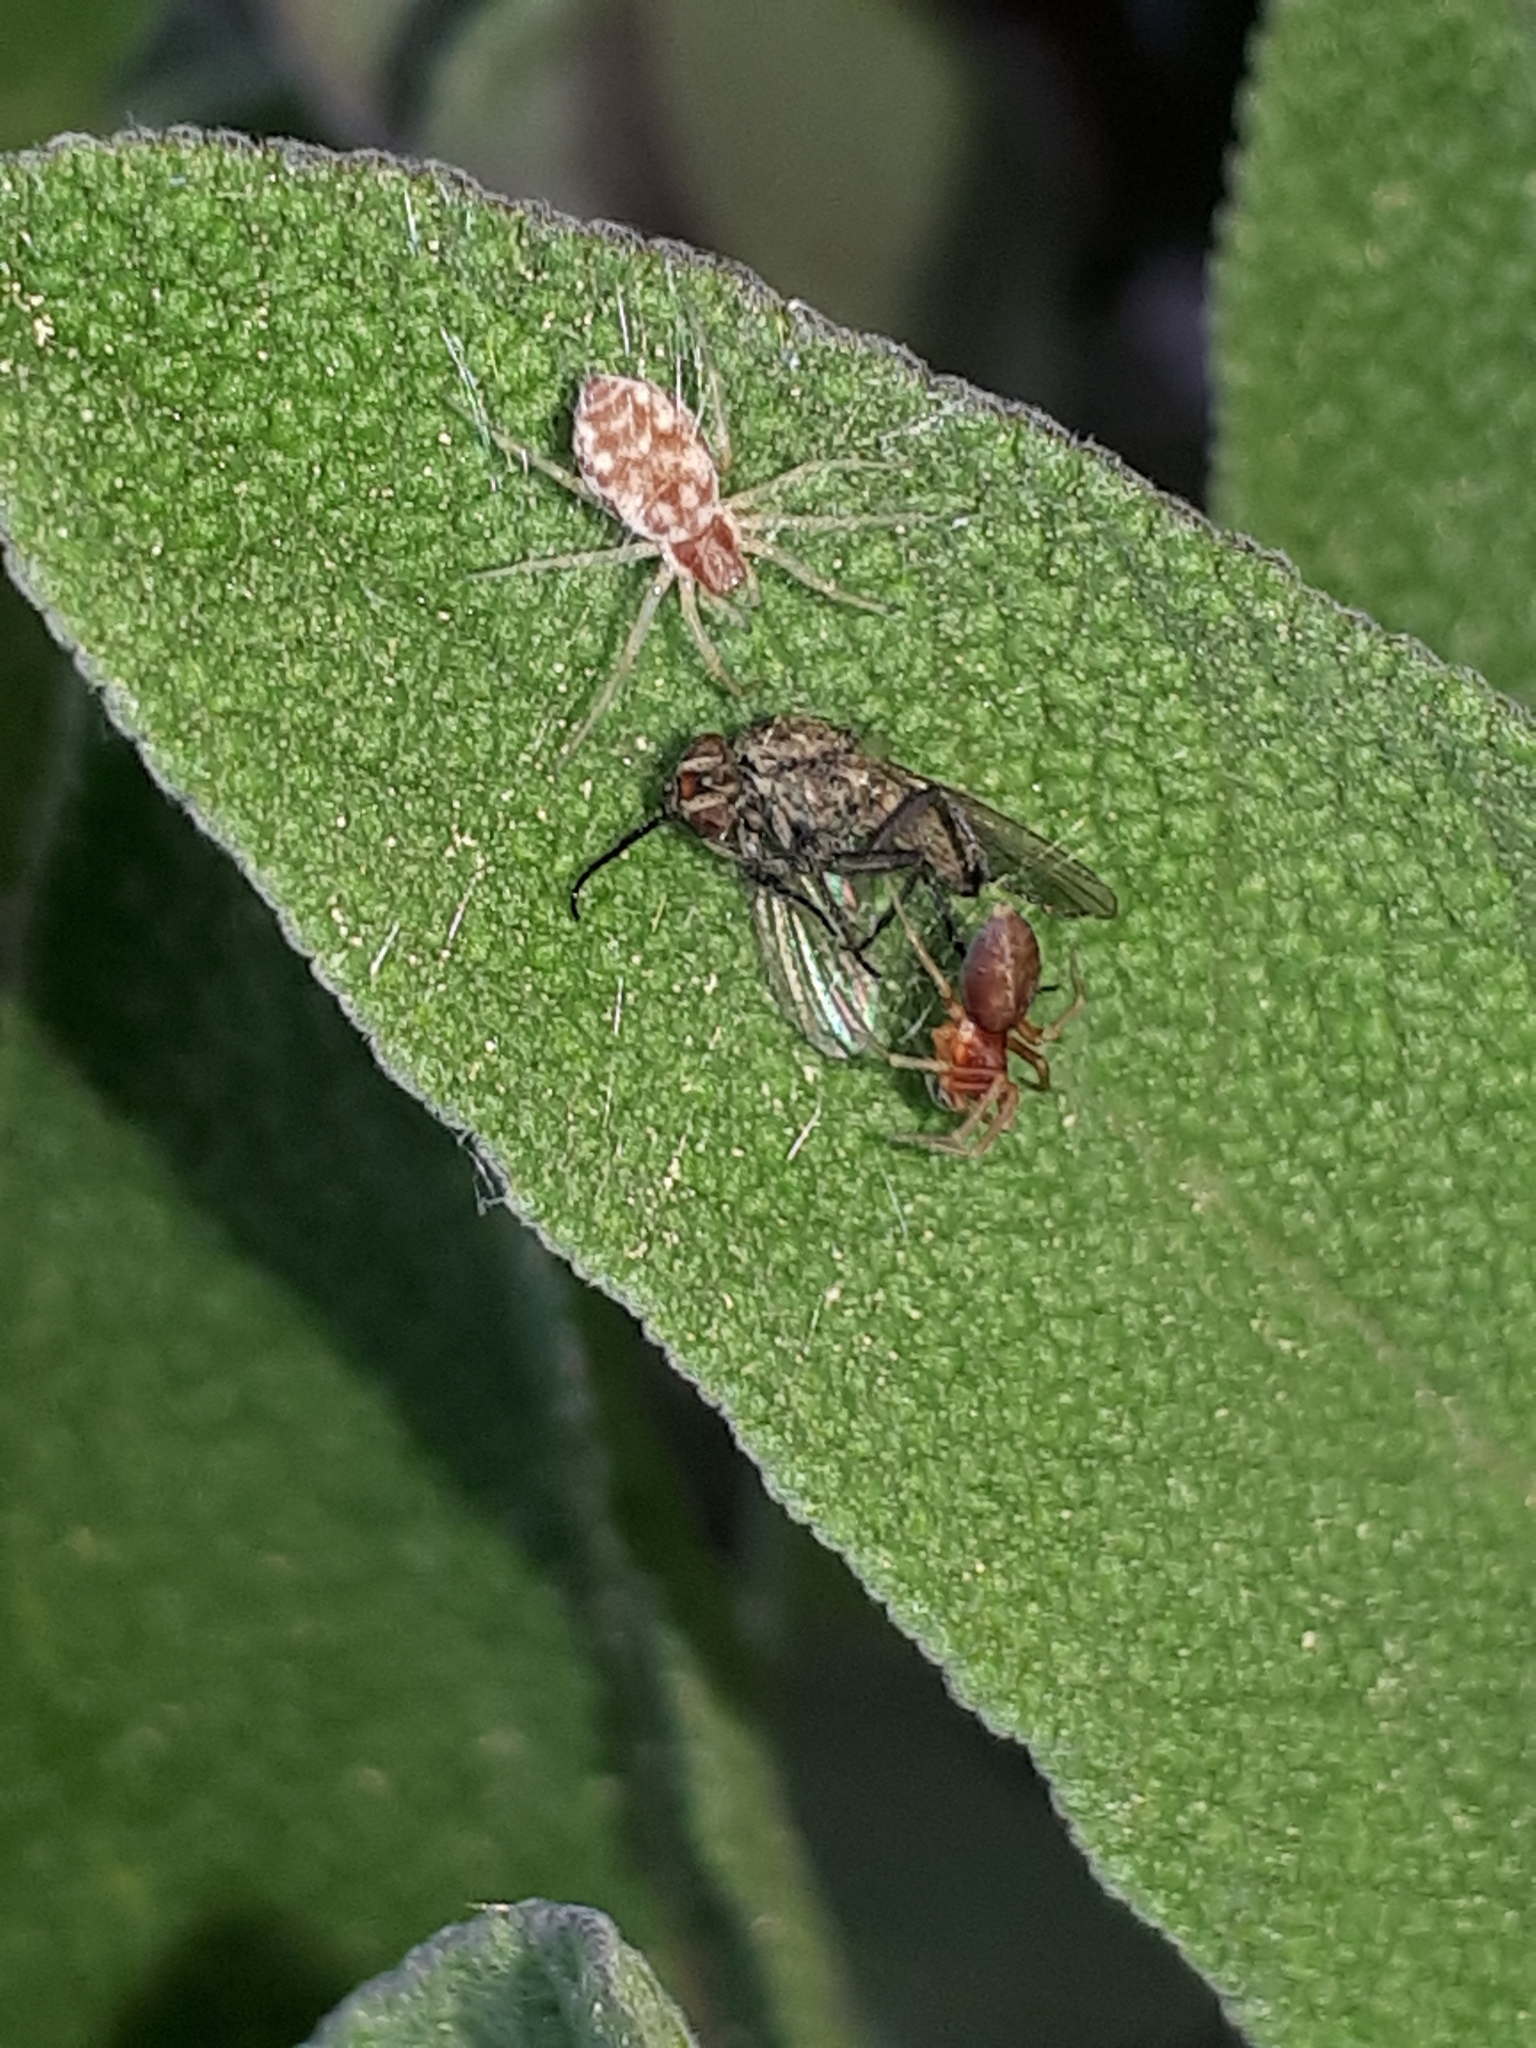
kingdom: Animalia
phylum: Arthropoda
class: Arachnida
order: Araneae
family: Dictynidae
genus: Nigma
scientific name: Nigma flavescens
